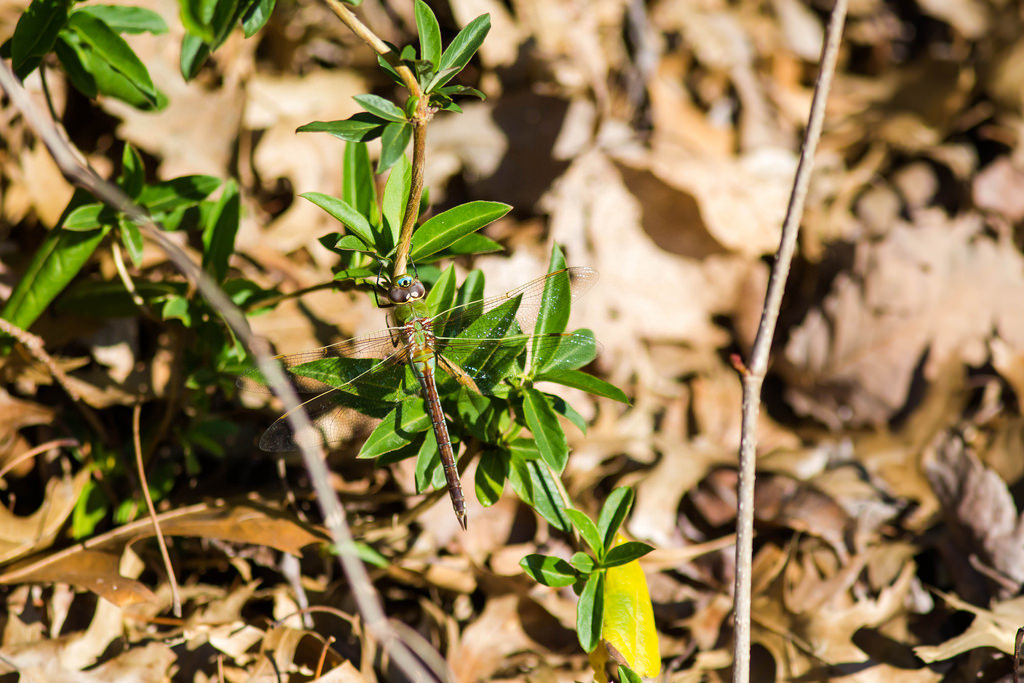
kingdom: Animalia
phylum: Arthropoda
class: Insecta
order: Odonata
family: Aeshnidae
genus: Anax
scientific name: Anax junius
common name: Common green darner
